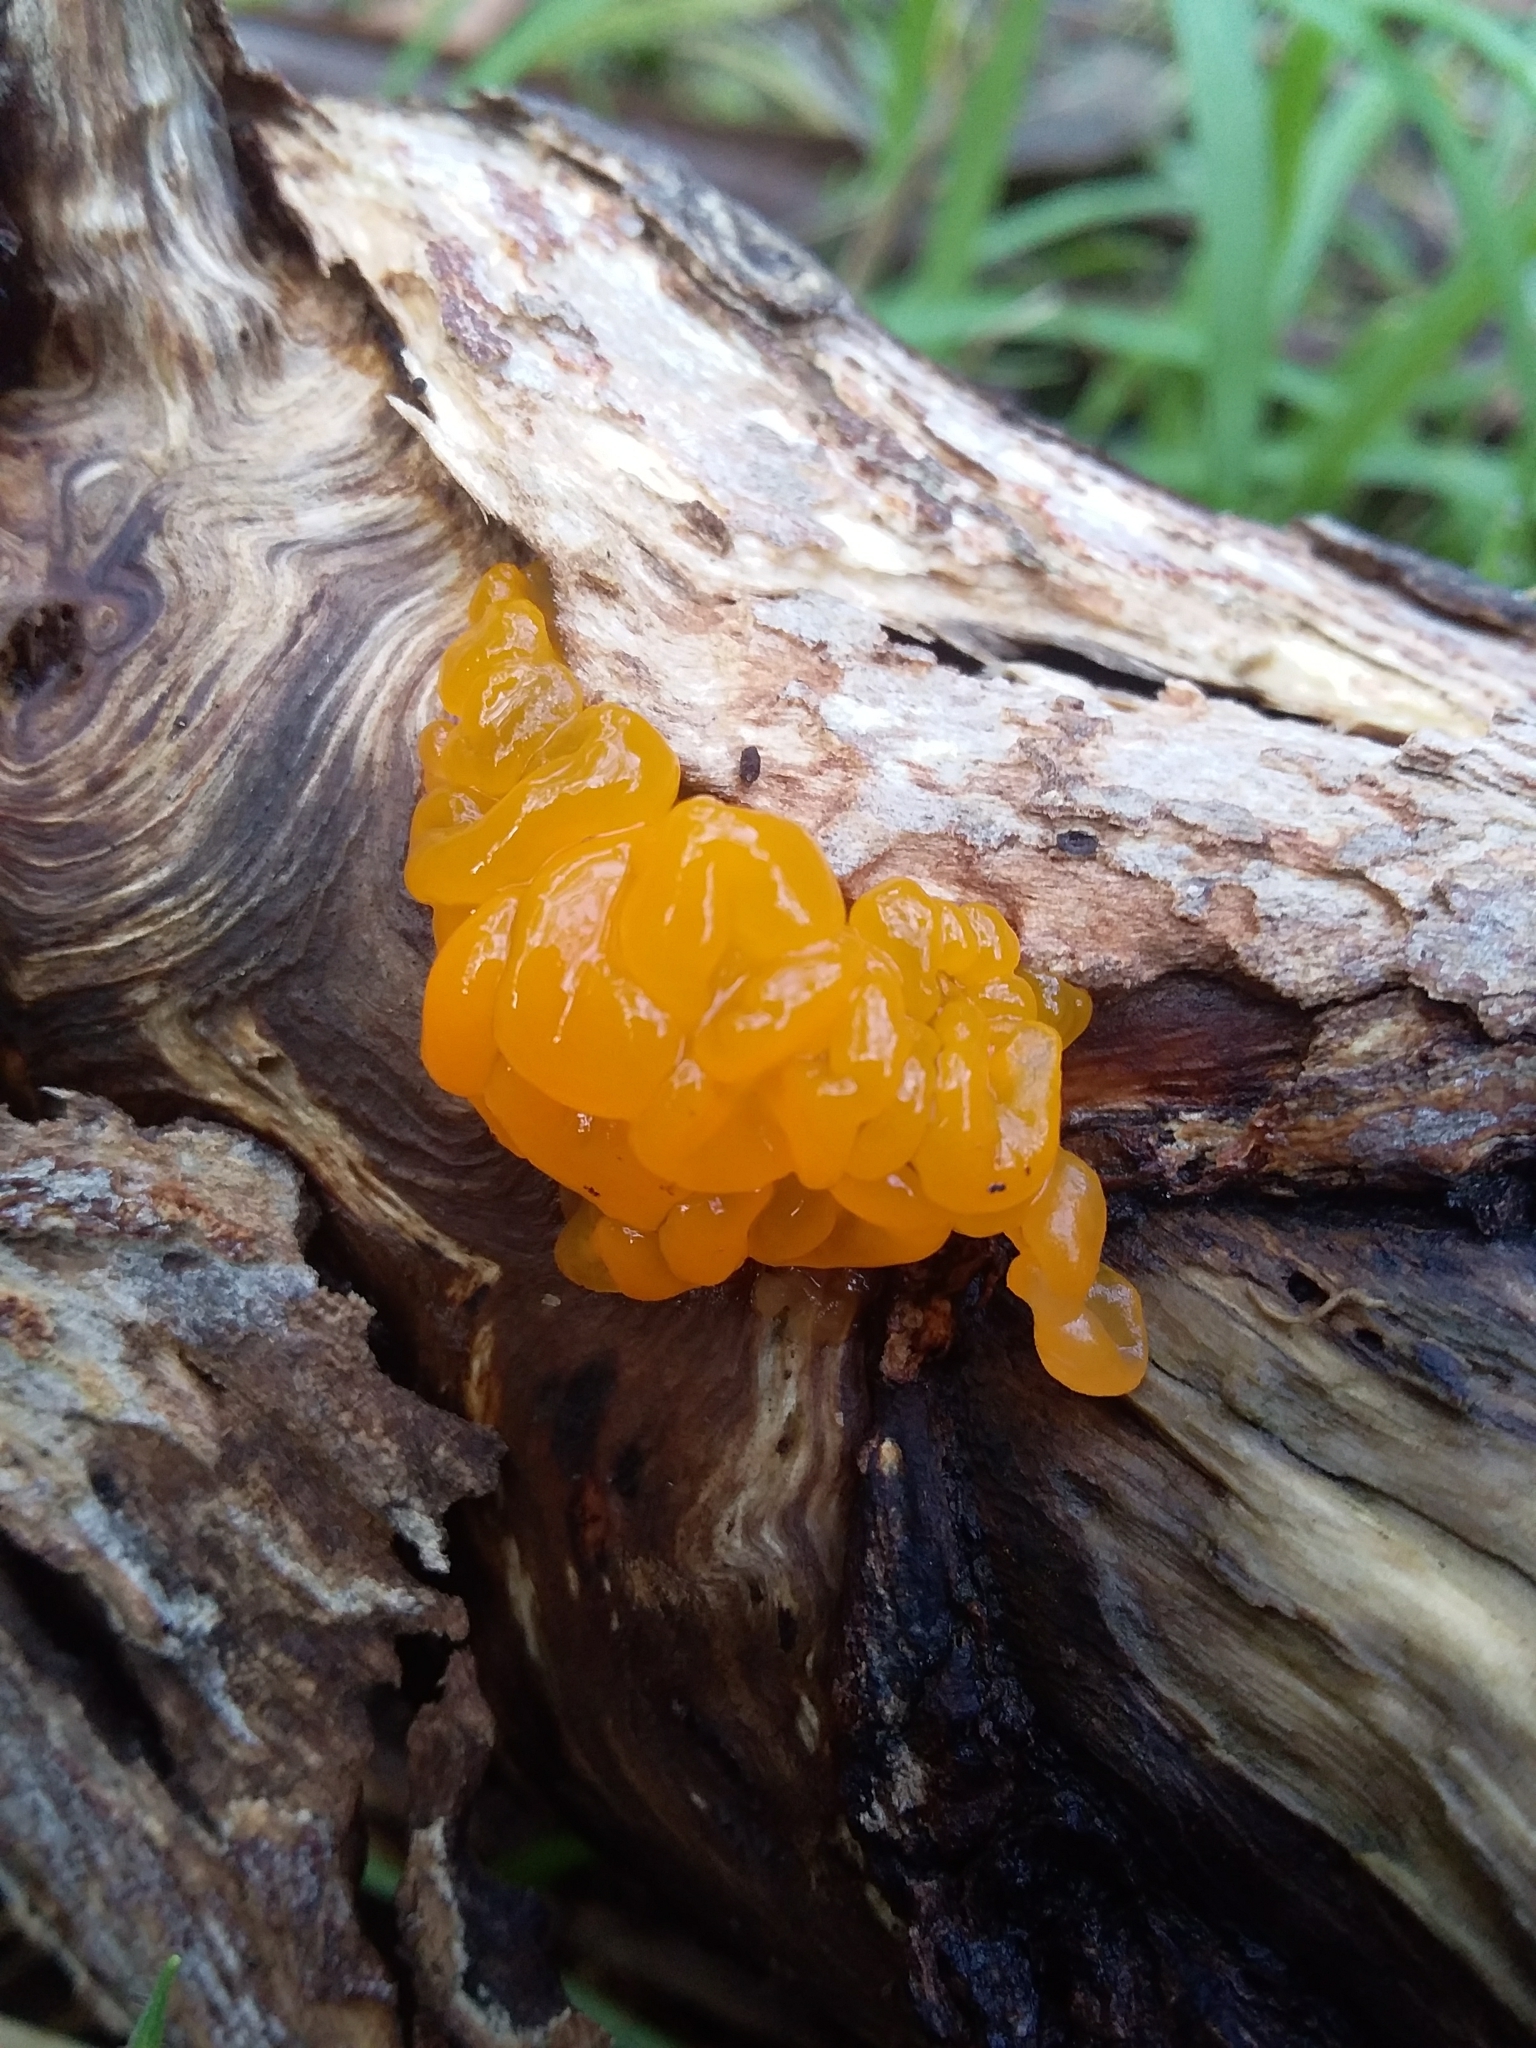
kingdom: Fungi
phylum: Basidiomycota
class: Tremellomycetes
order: Tremellales
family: Tremellaceae
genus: Tremella
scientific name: Tremella mesenterica
